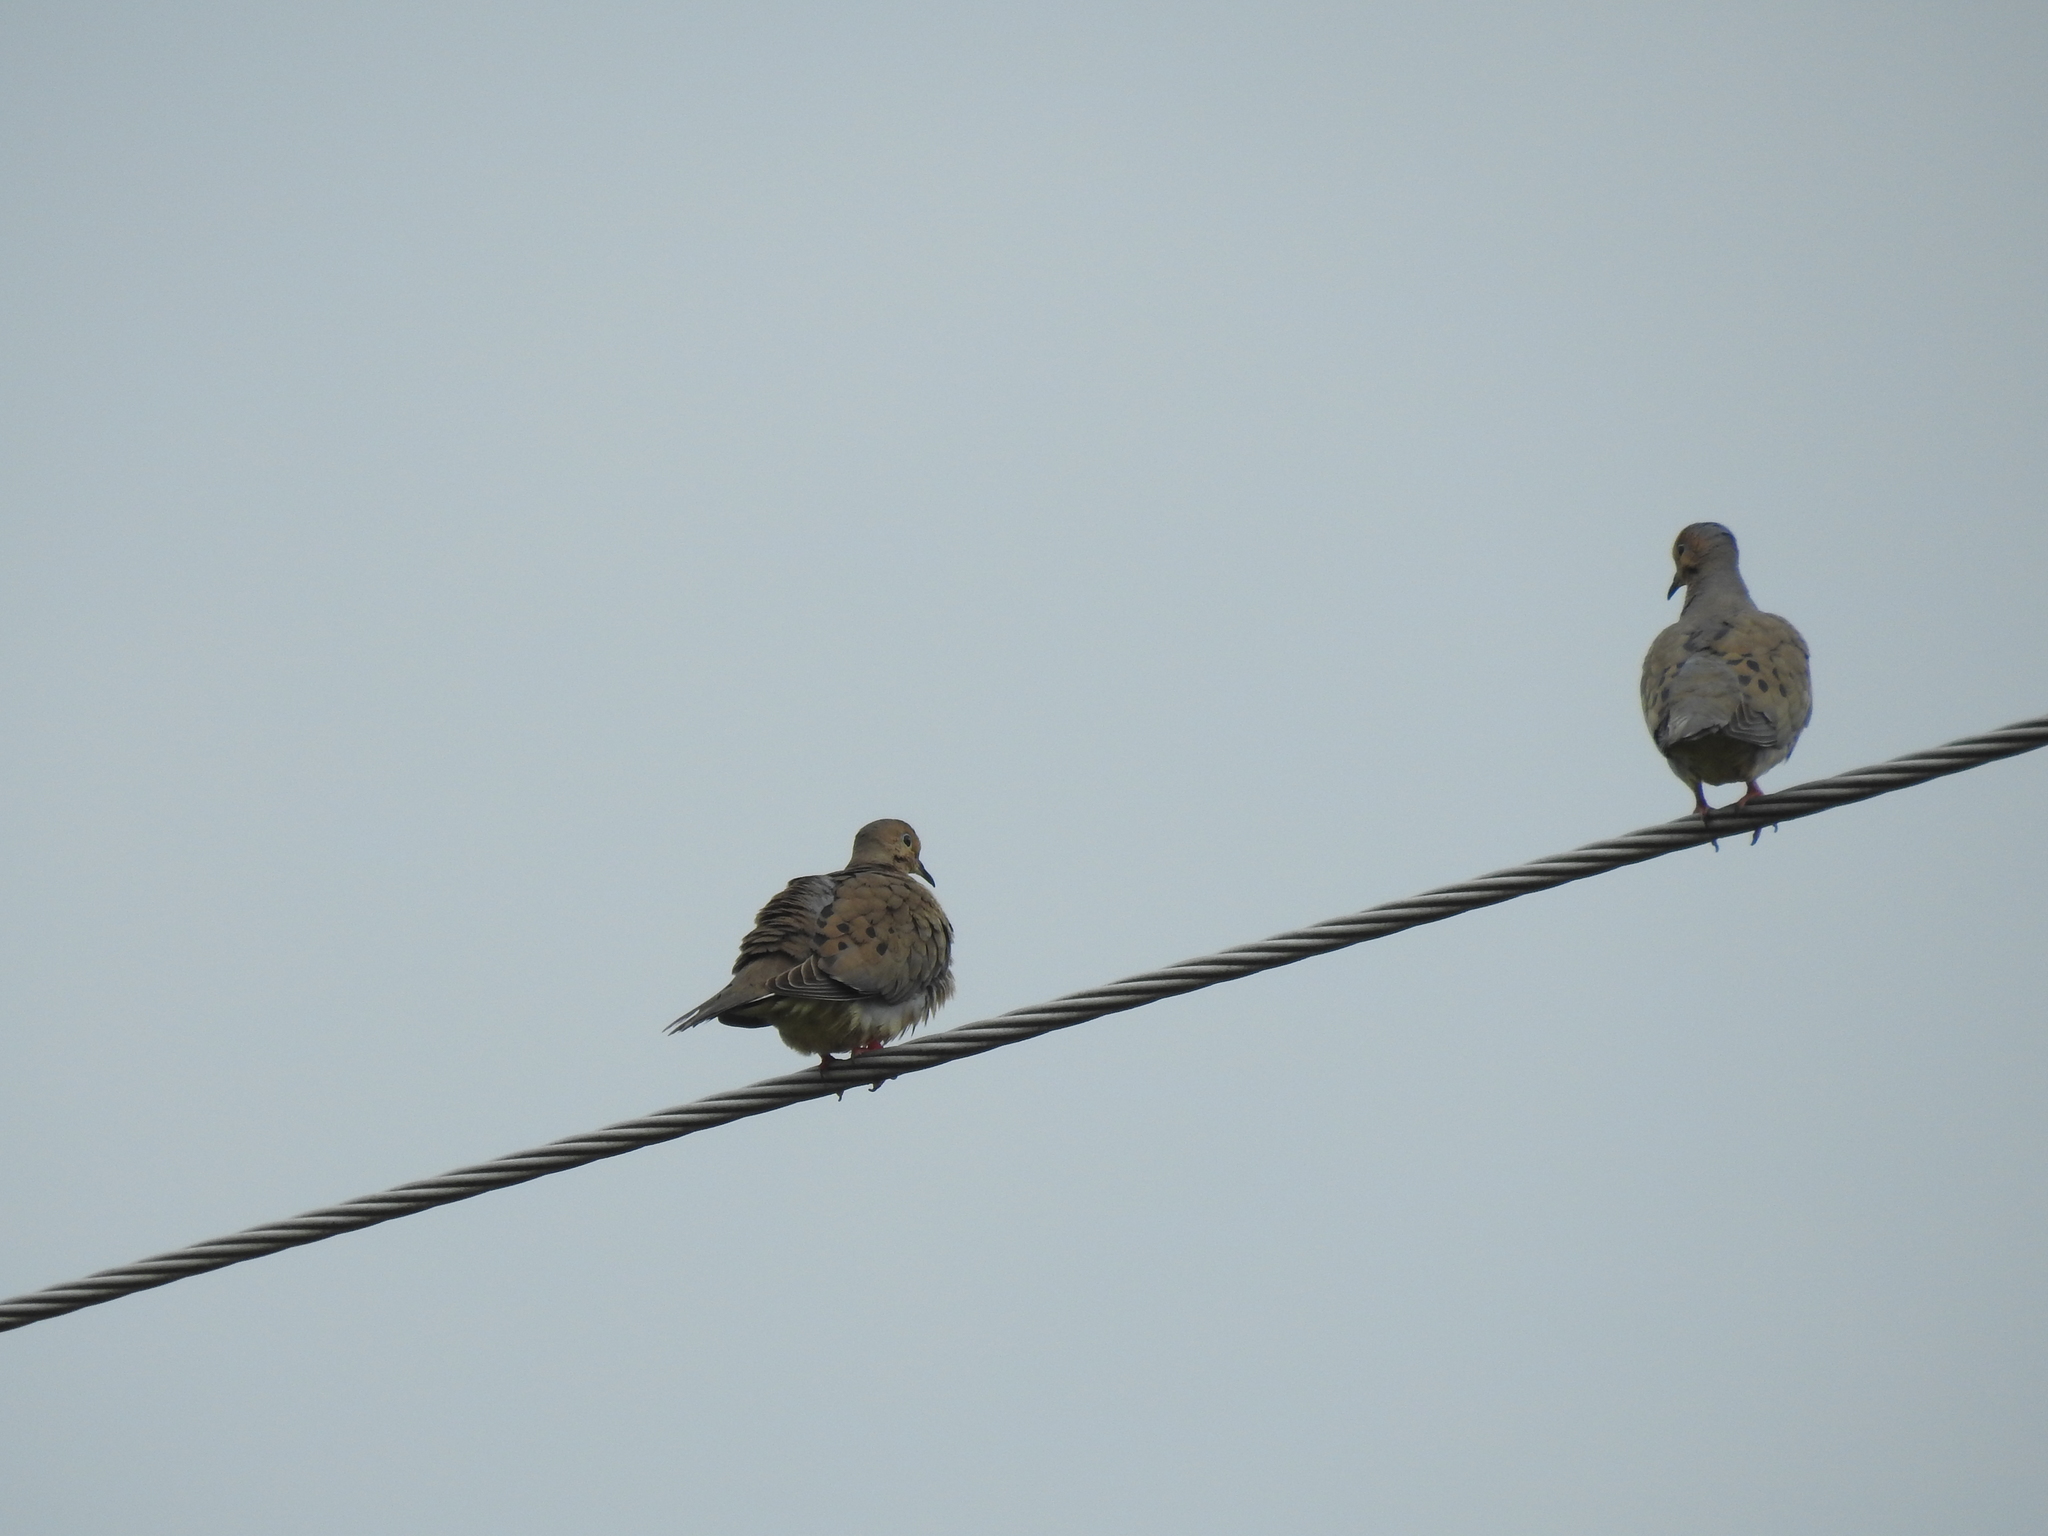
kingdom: Animalia
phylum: Chordata
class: Aves
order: Columbiformes
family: Columbidae
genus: Zenaida
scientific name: Zenaida macroura
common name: Mourning dove
